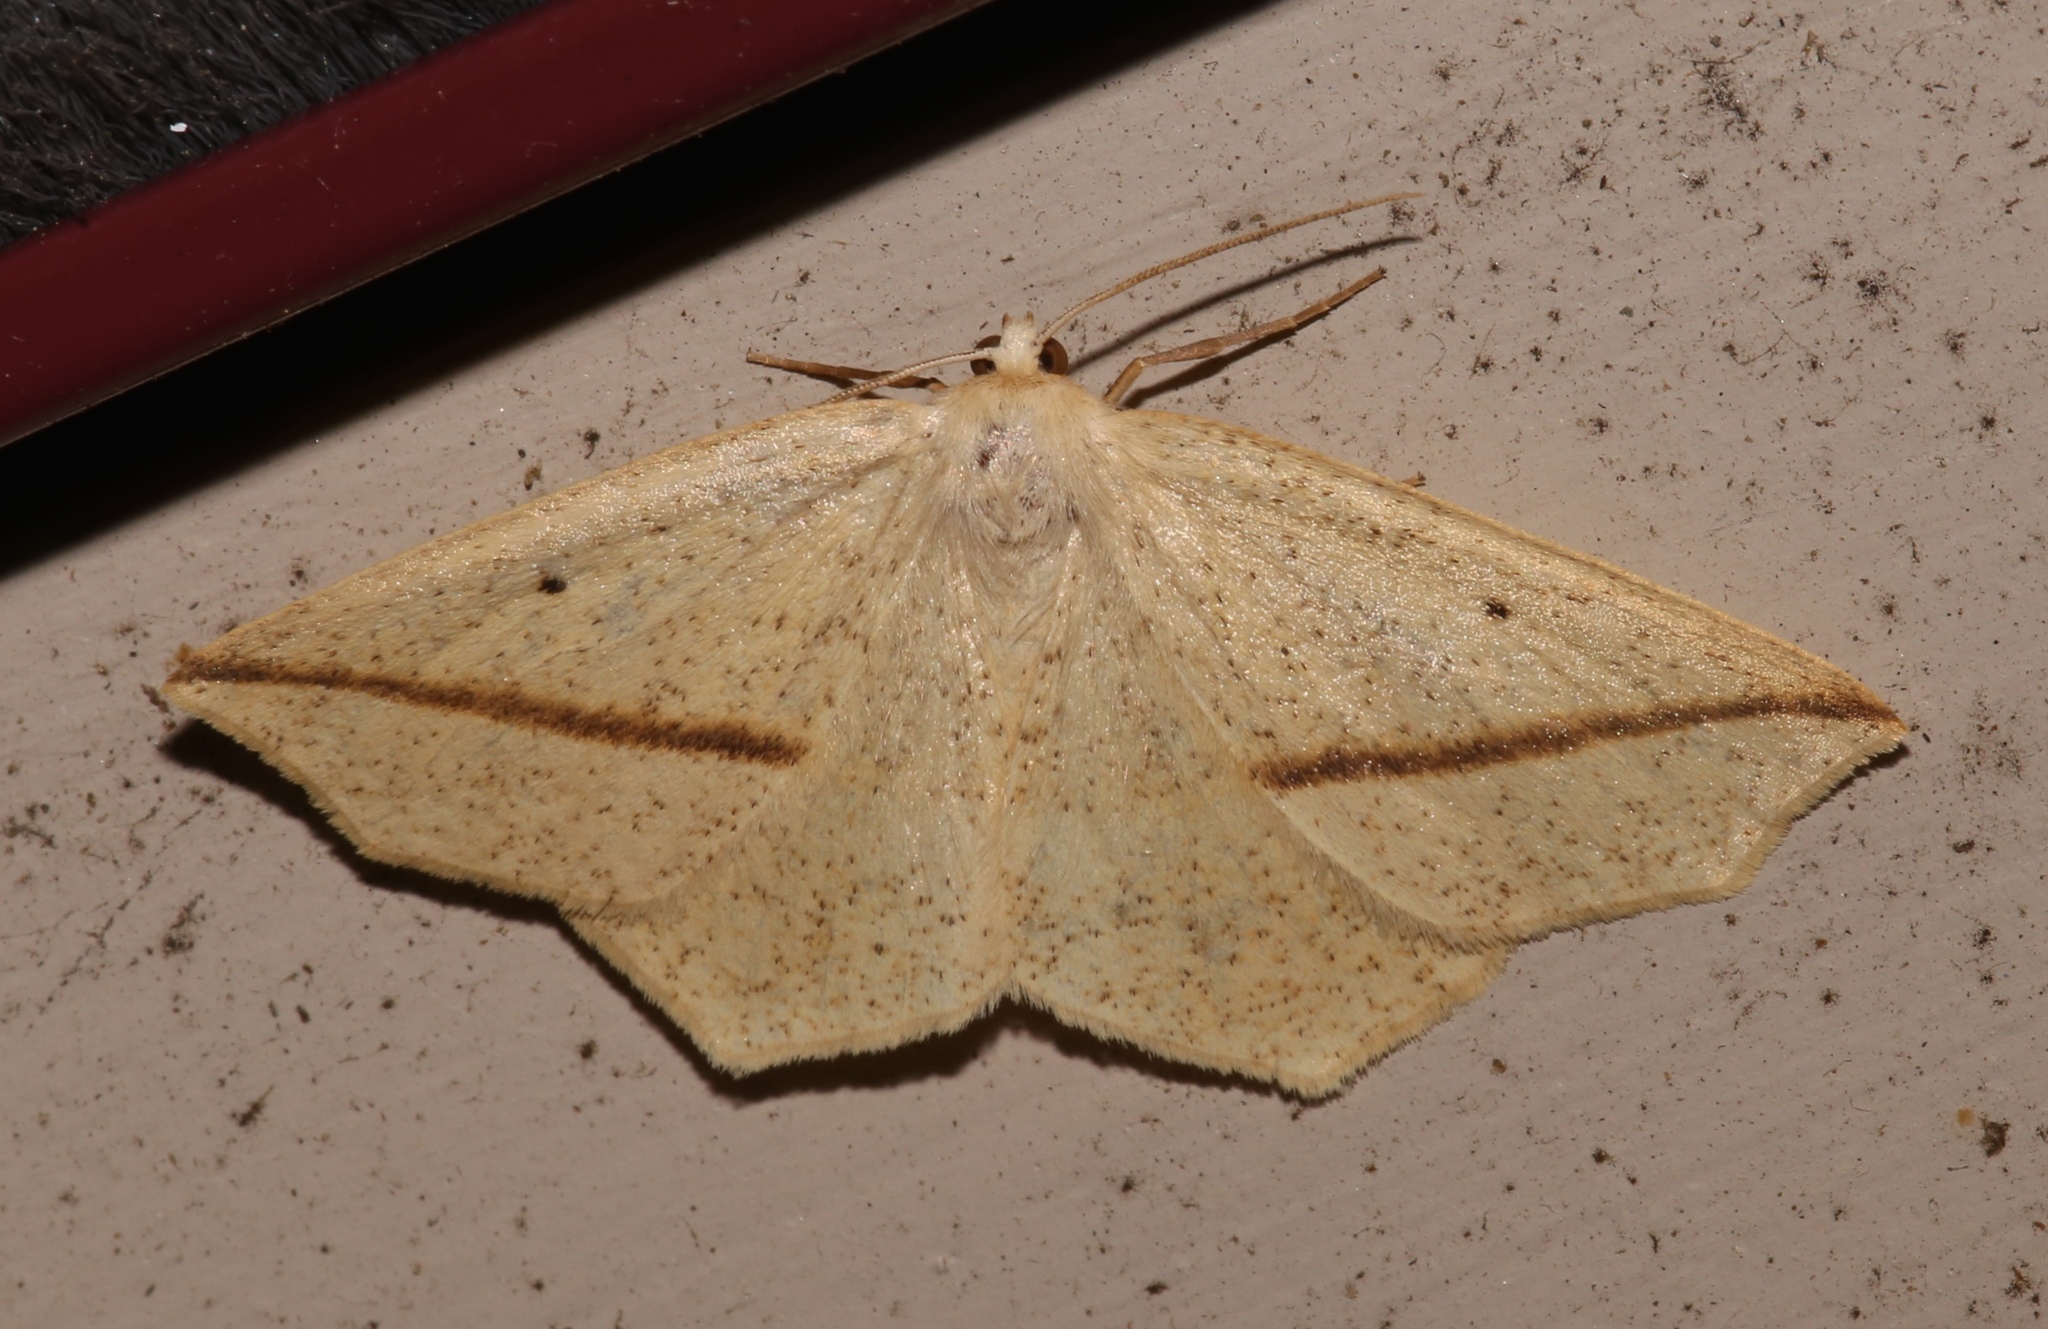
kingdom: Animalia
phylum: Arthropoda
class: Insecta
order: Lepidoptera
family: Geometridae
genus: Tetracis
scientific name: Tetracis crocallata
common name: Yellow slant-line
